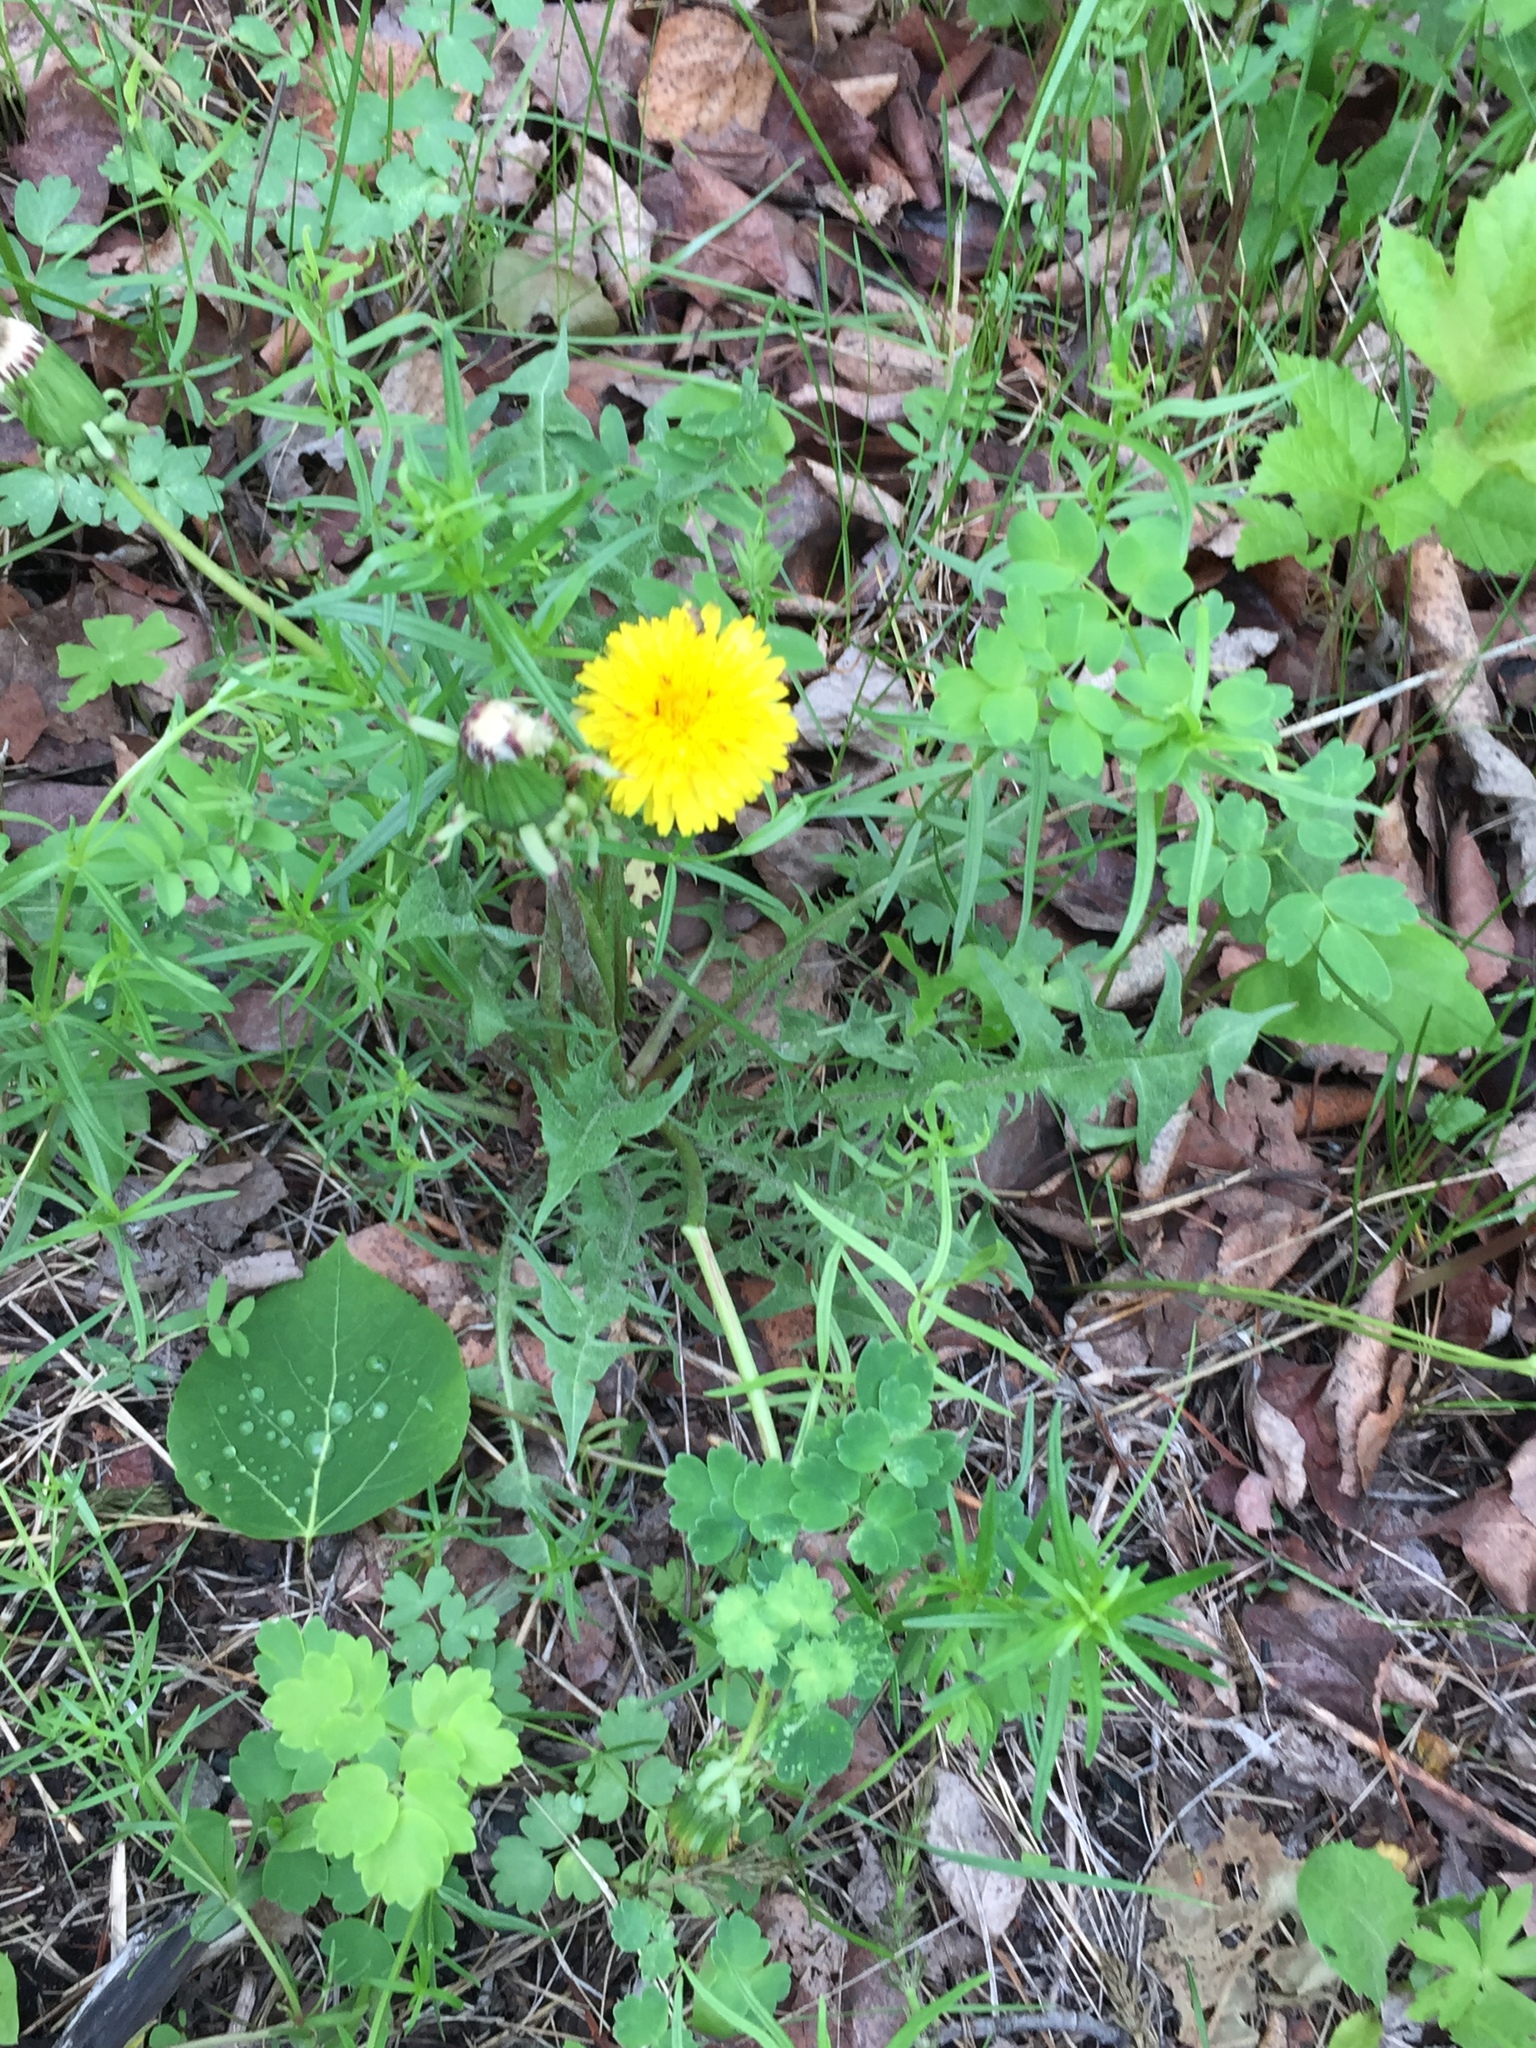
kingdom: Plantae
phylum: Tracheophyta
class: Magnoliopsida
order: Asterales
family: Asteraceae
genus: Taraxacum
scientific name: Taraxacum officinale
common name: Common dandelion
